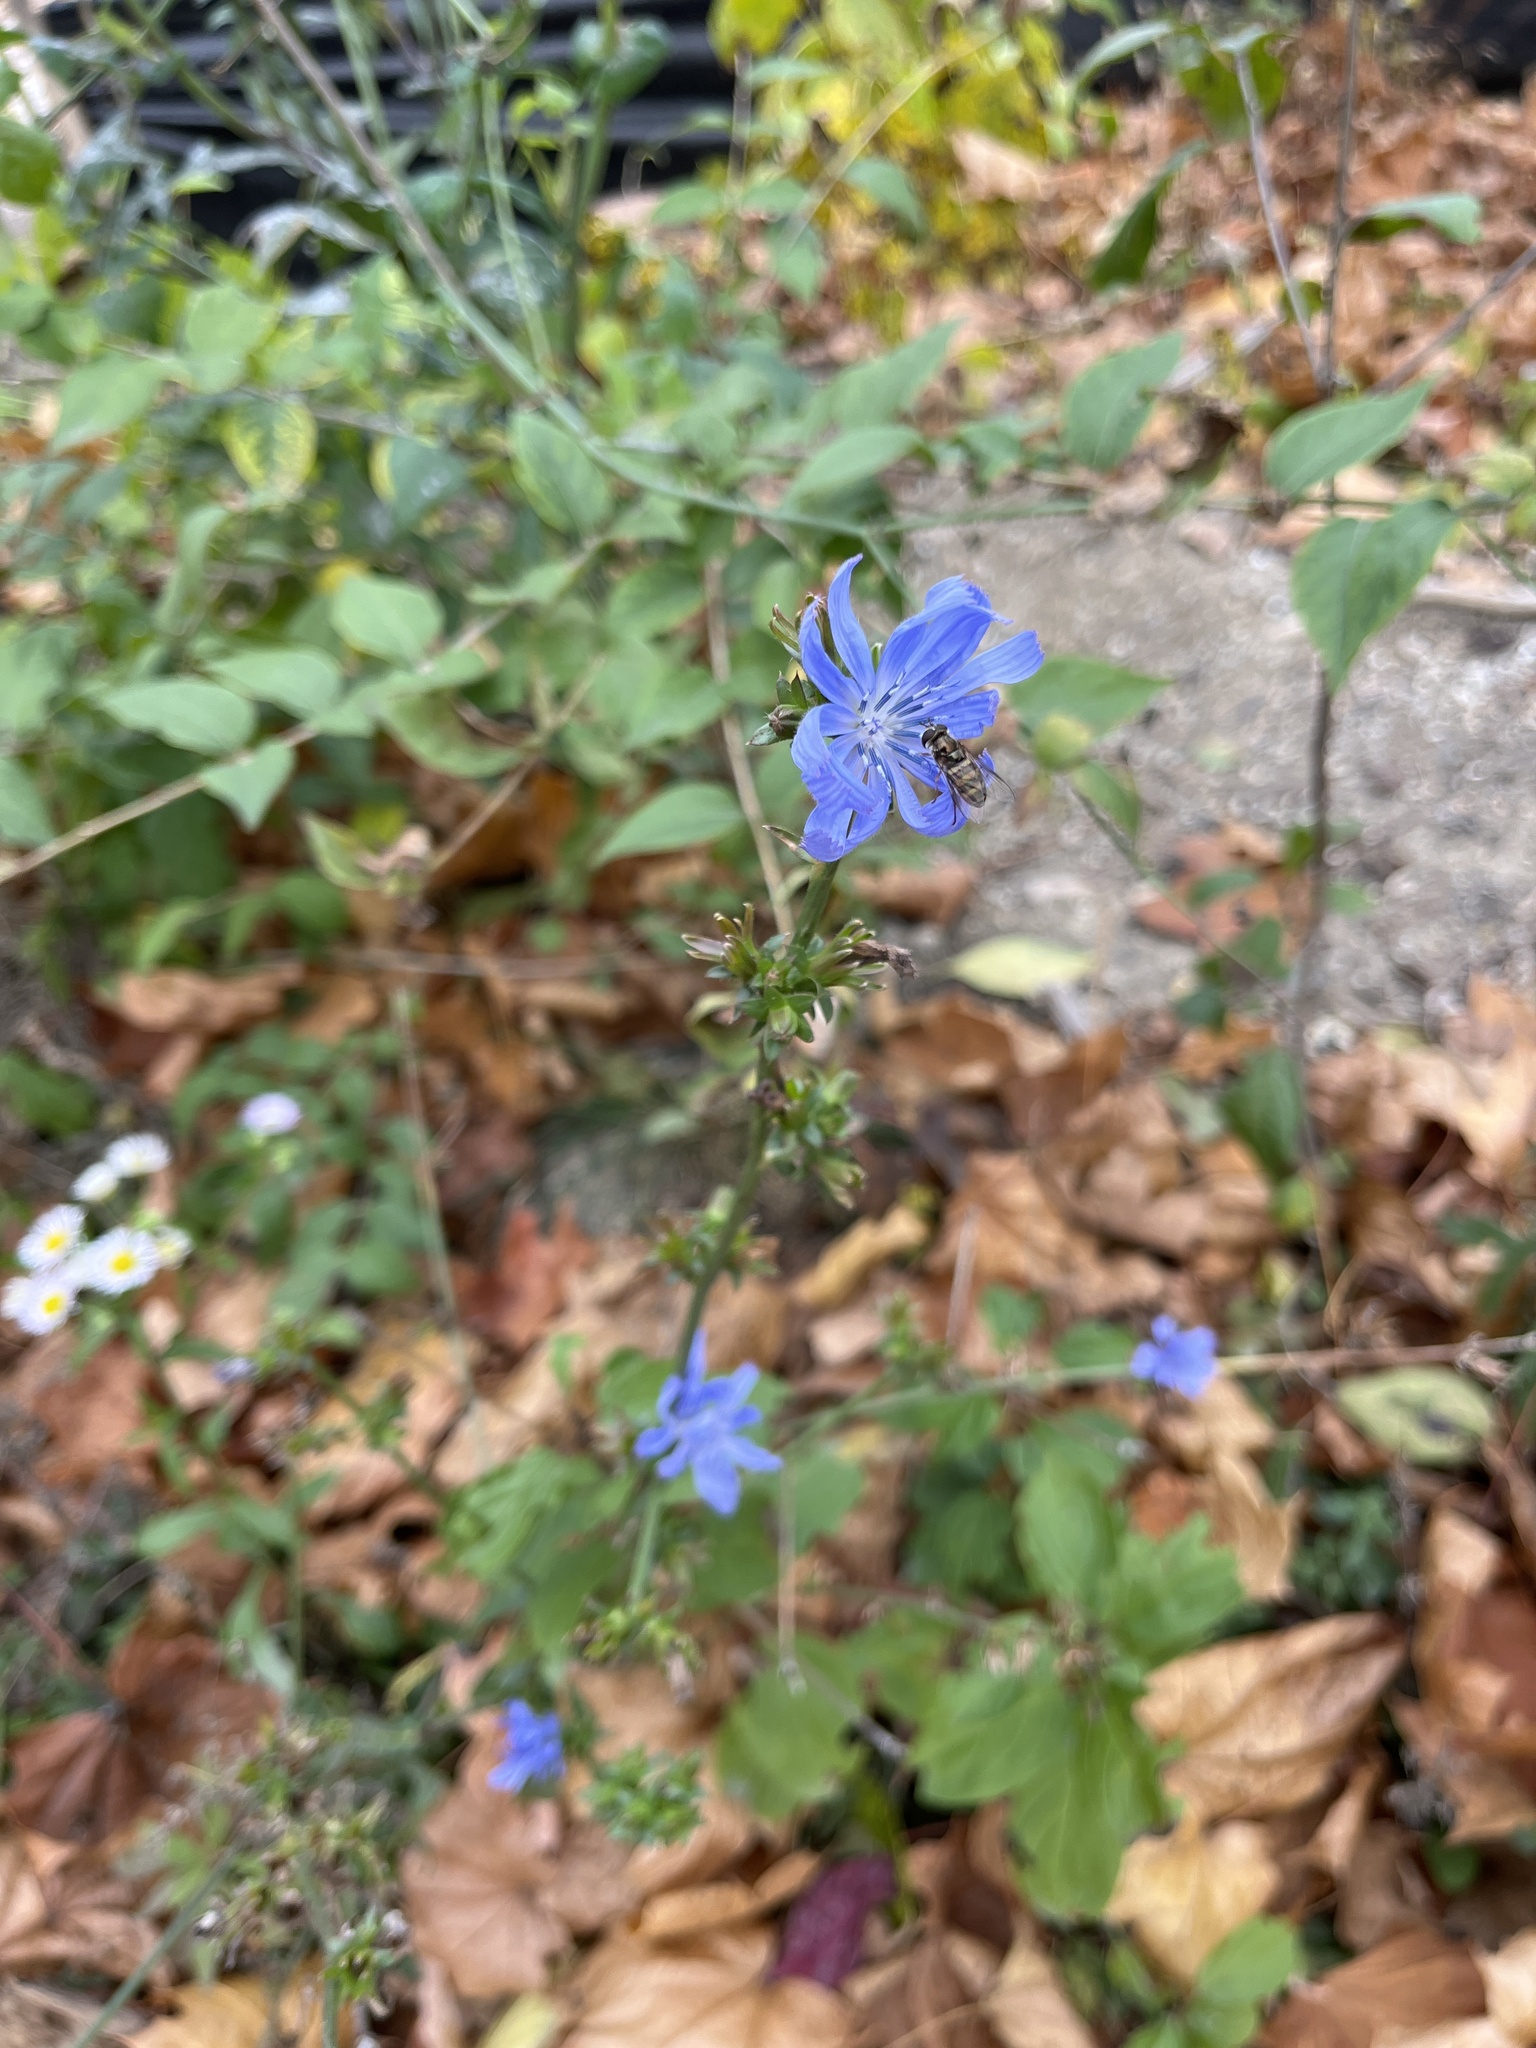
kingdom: Plantae
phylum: Tracheophyta
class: Magnoliopsida
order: Asterales
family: Asteraceae
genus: Cichorium
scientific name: Cichorium intybus
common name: Chicory
